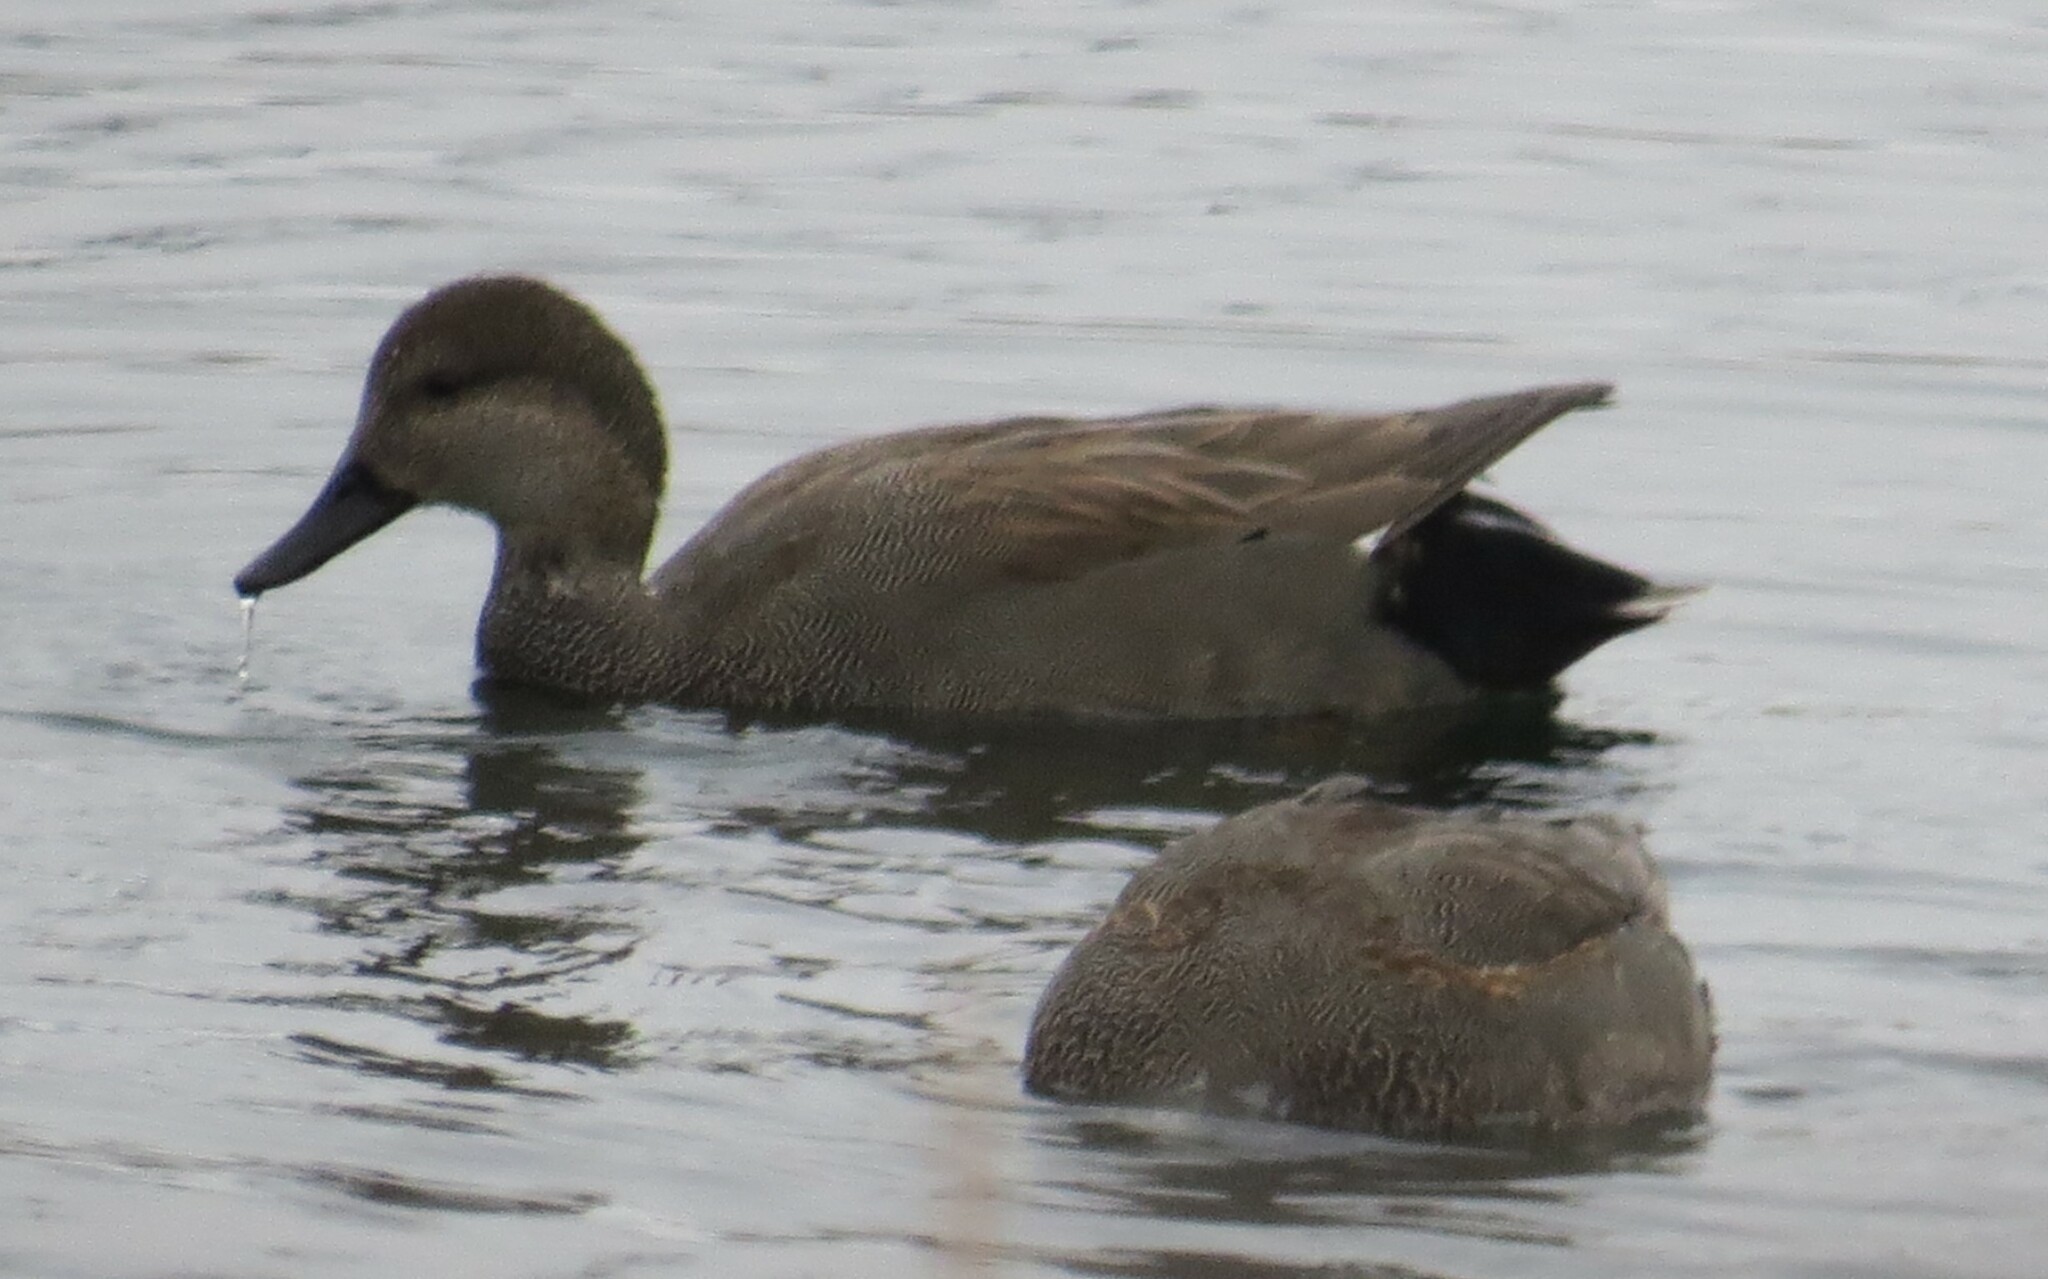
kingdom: Animalia
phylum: Chordata
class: Aves
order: Anseriformes
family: Anatidae
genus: Mareca
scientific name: Mareca strepera
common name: Gadwall
